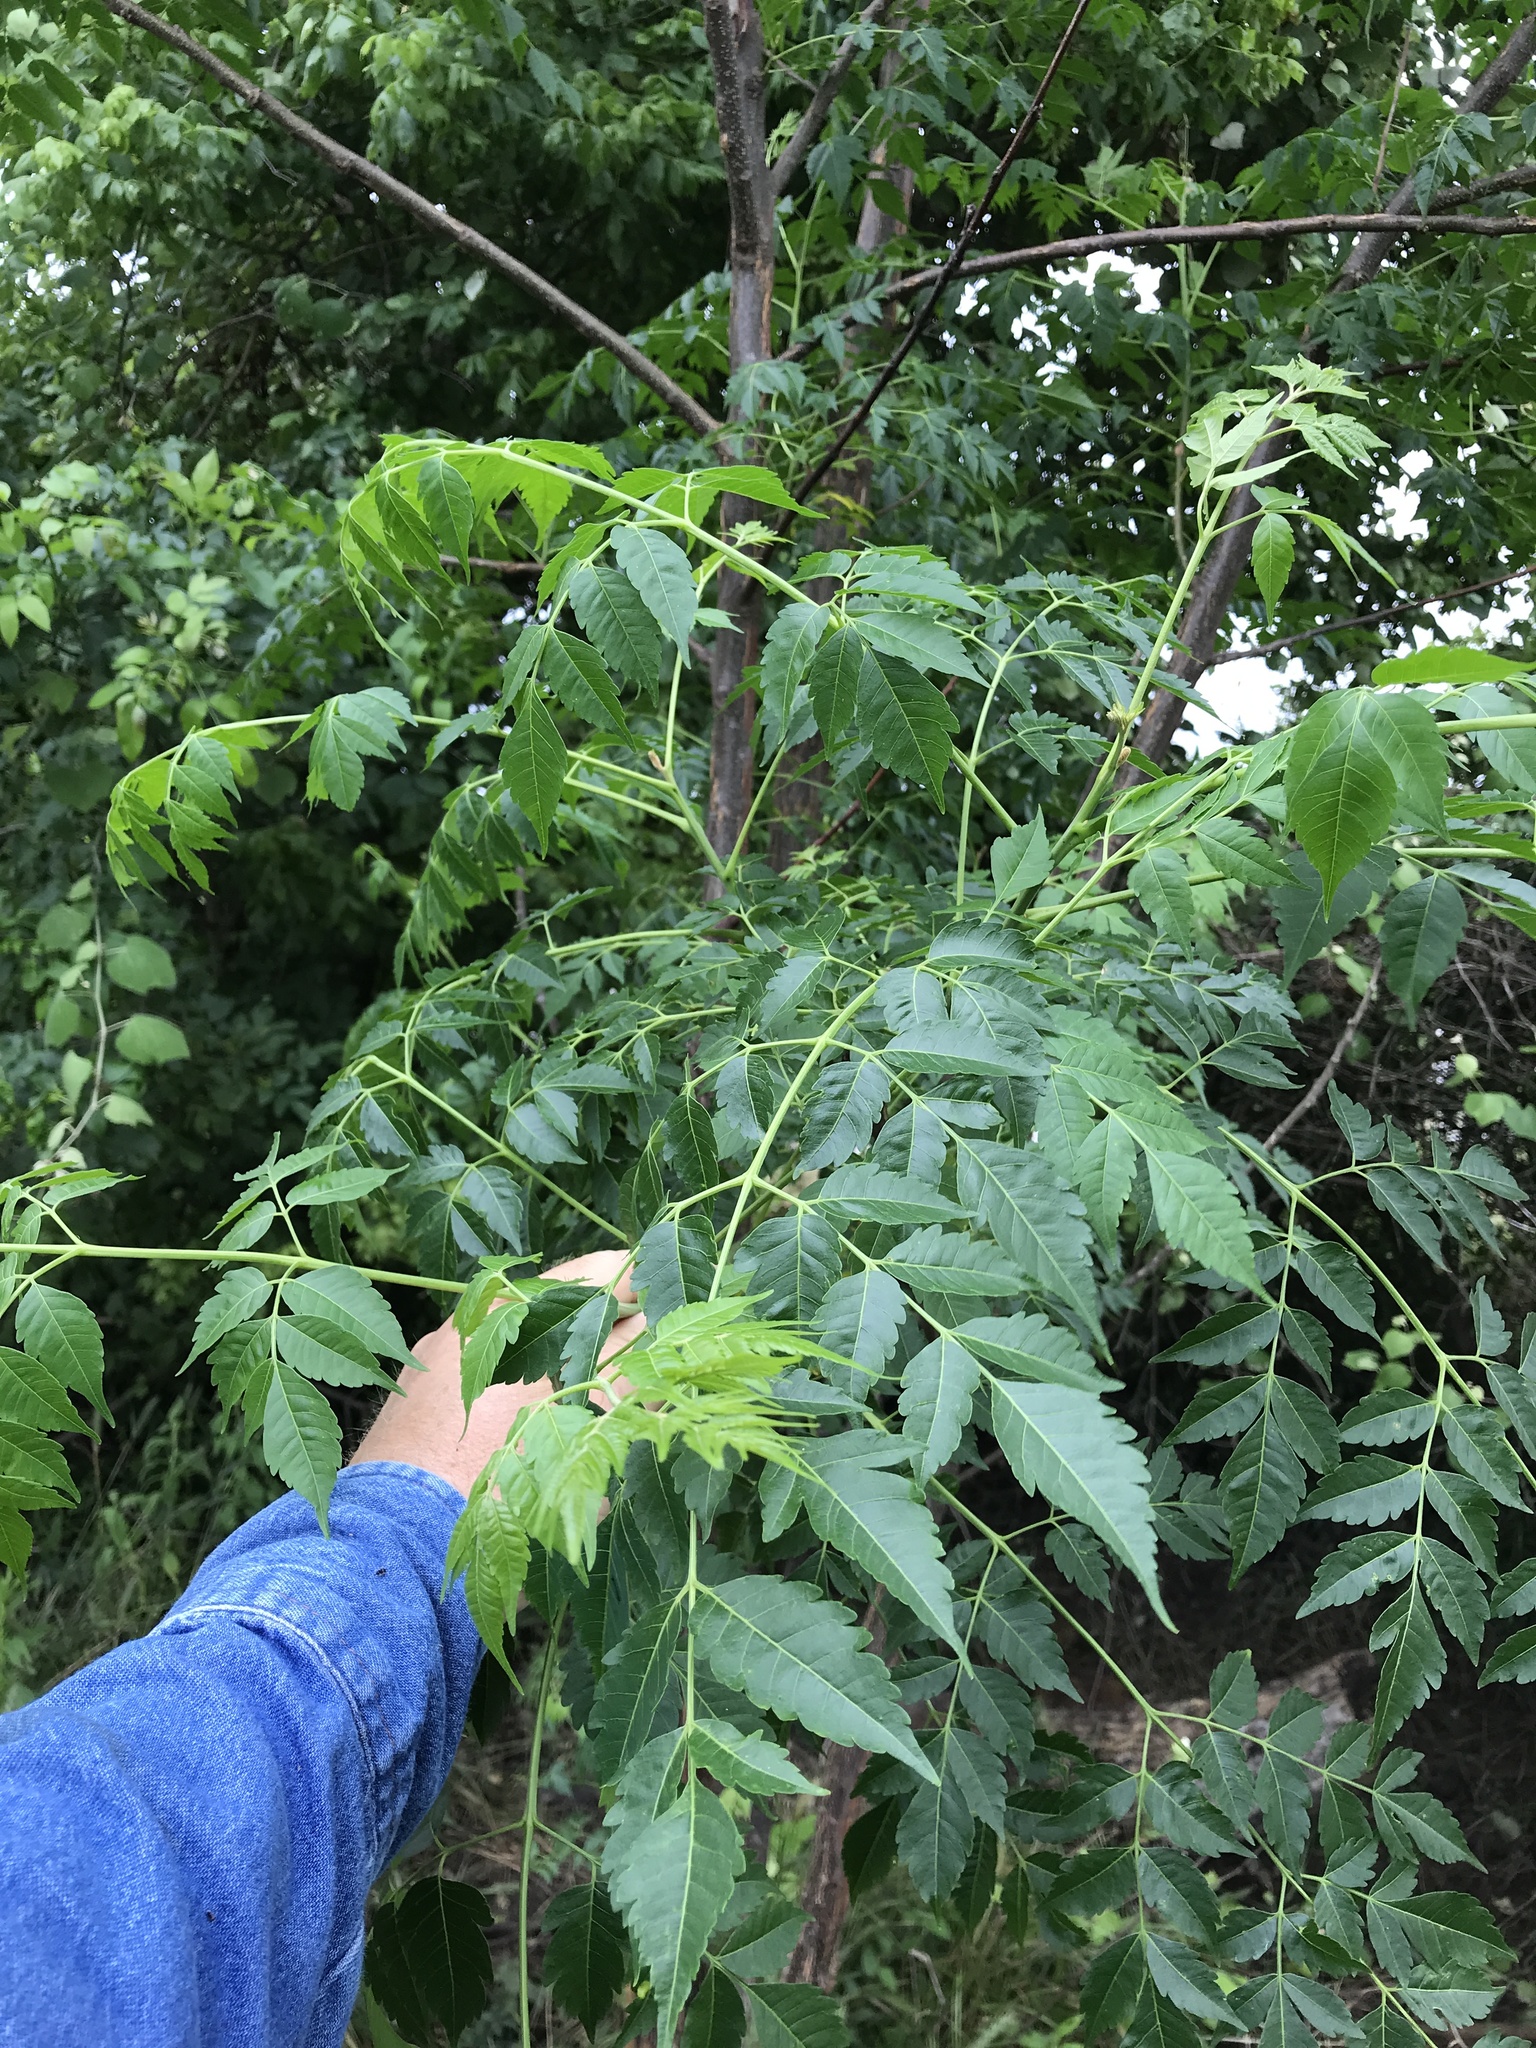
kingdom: Plantae
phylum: Tracheophyta
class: Magnoliopsida
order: Sapindales
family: Meliaceae
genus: Melia
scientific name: Melia azedarach
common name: Chinaberrytree
